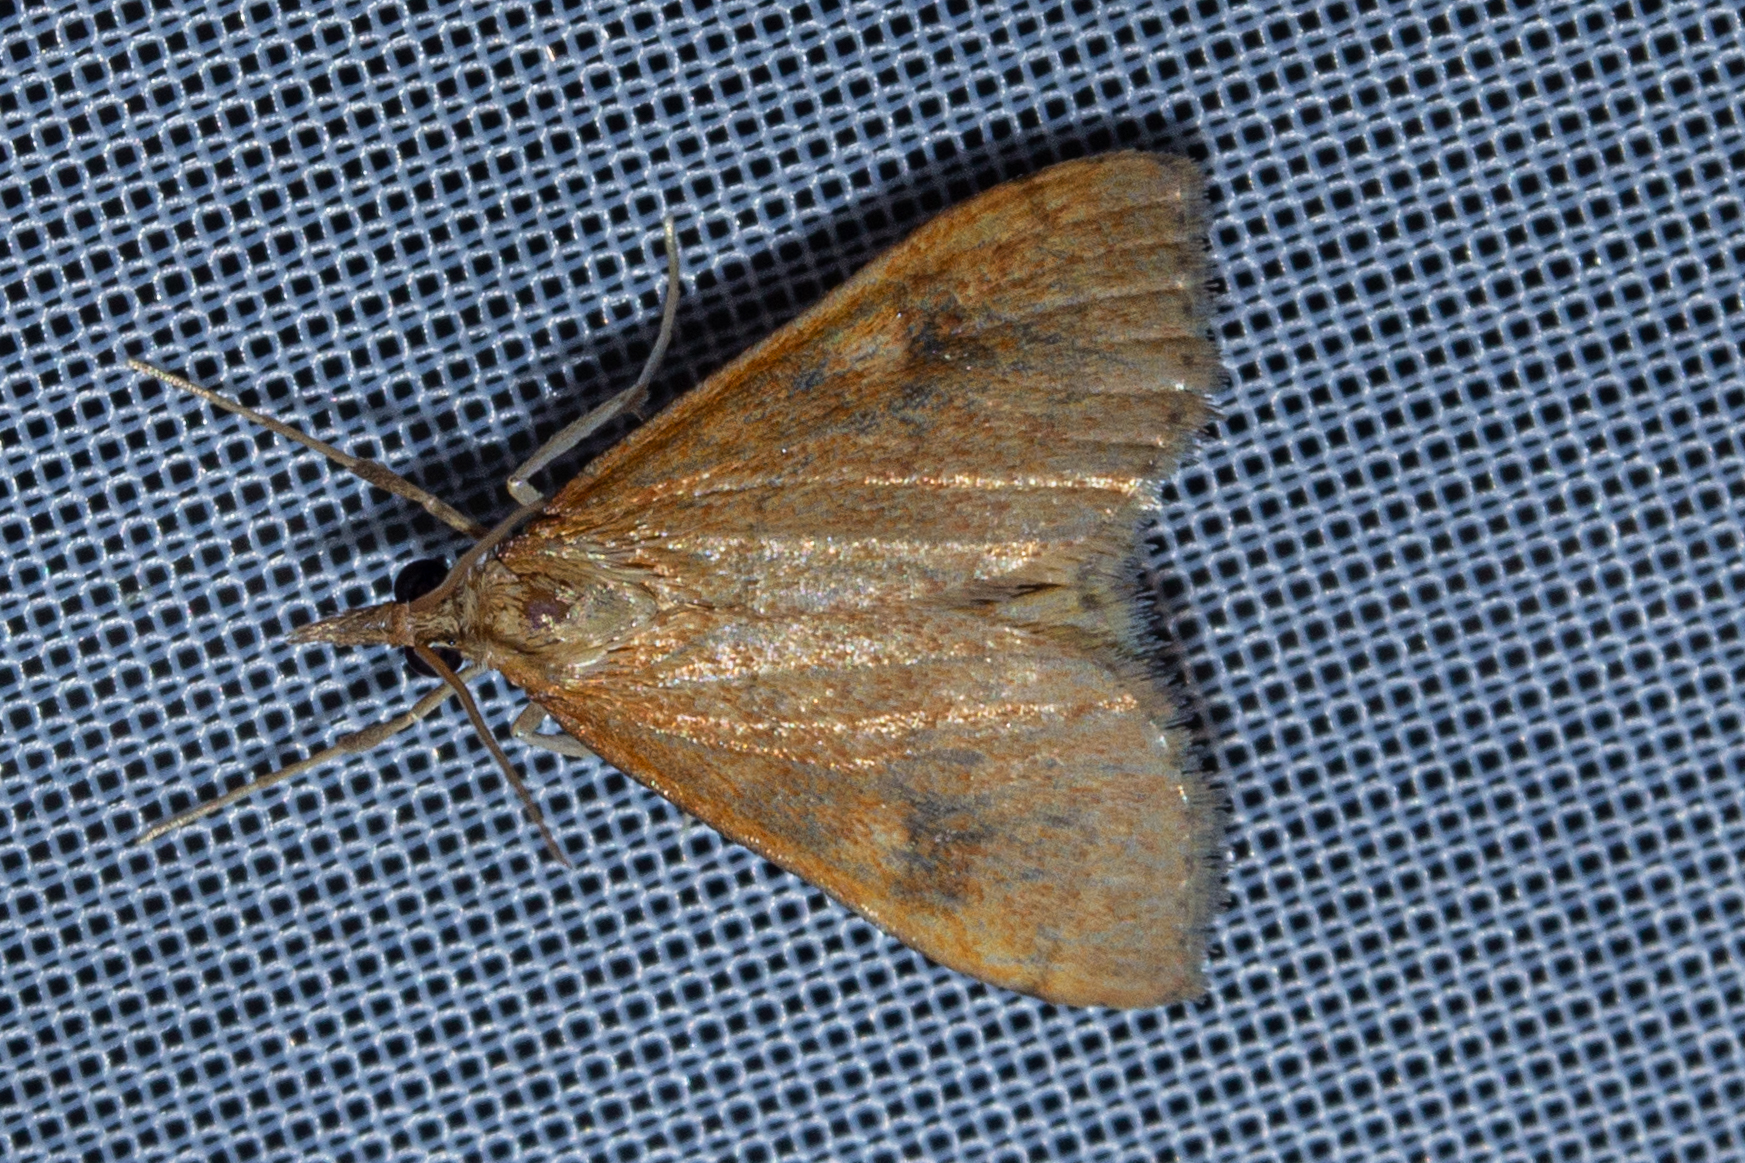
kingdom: Animalia
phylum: Arthropoda
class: Insecta
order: Lepidoptera
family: Crambidae
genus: Udea
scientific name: Udea Mnesictena flavidalis
